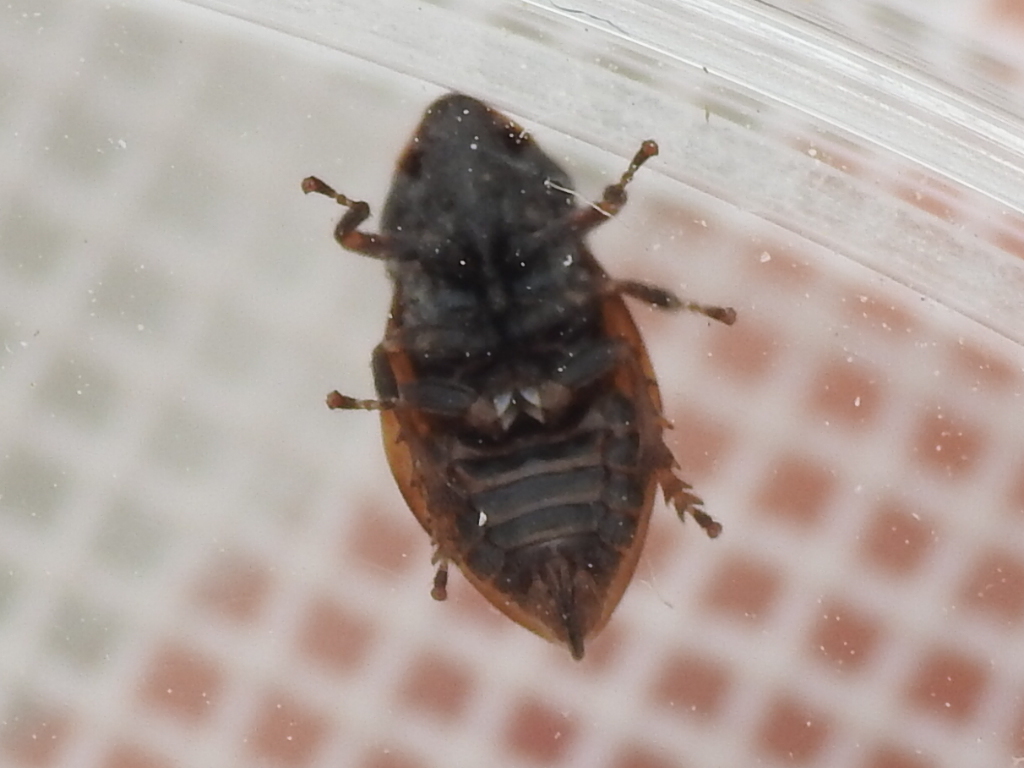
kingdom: Animalia
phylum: Arthropoda
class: Insecta
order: Hemiptera
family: Aphrophoridae
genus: Lepyronia
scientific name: Lepyronia quadrangularis
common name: Diamond-backed spittlebug
